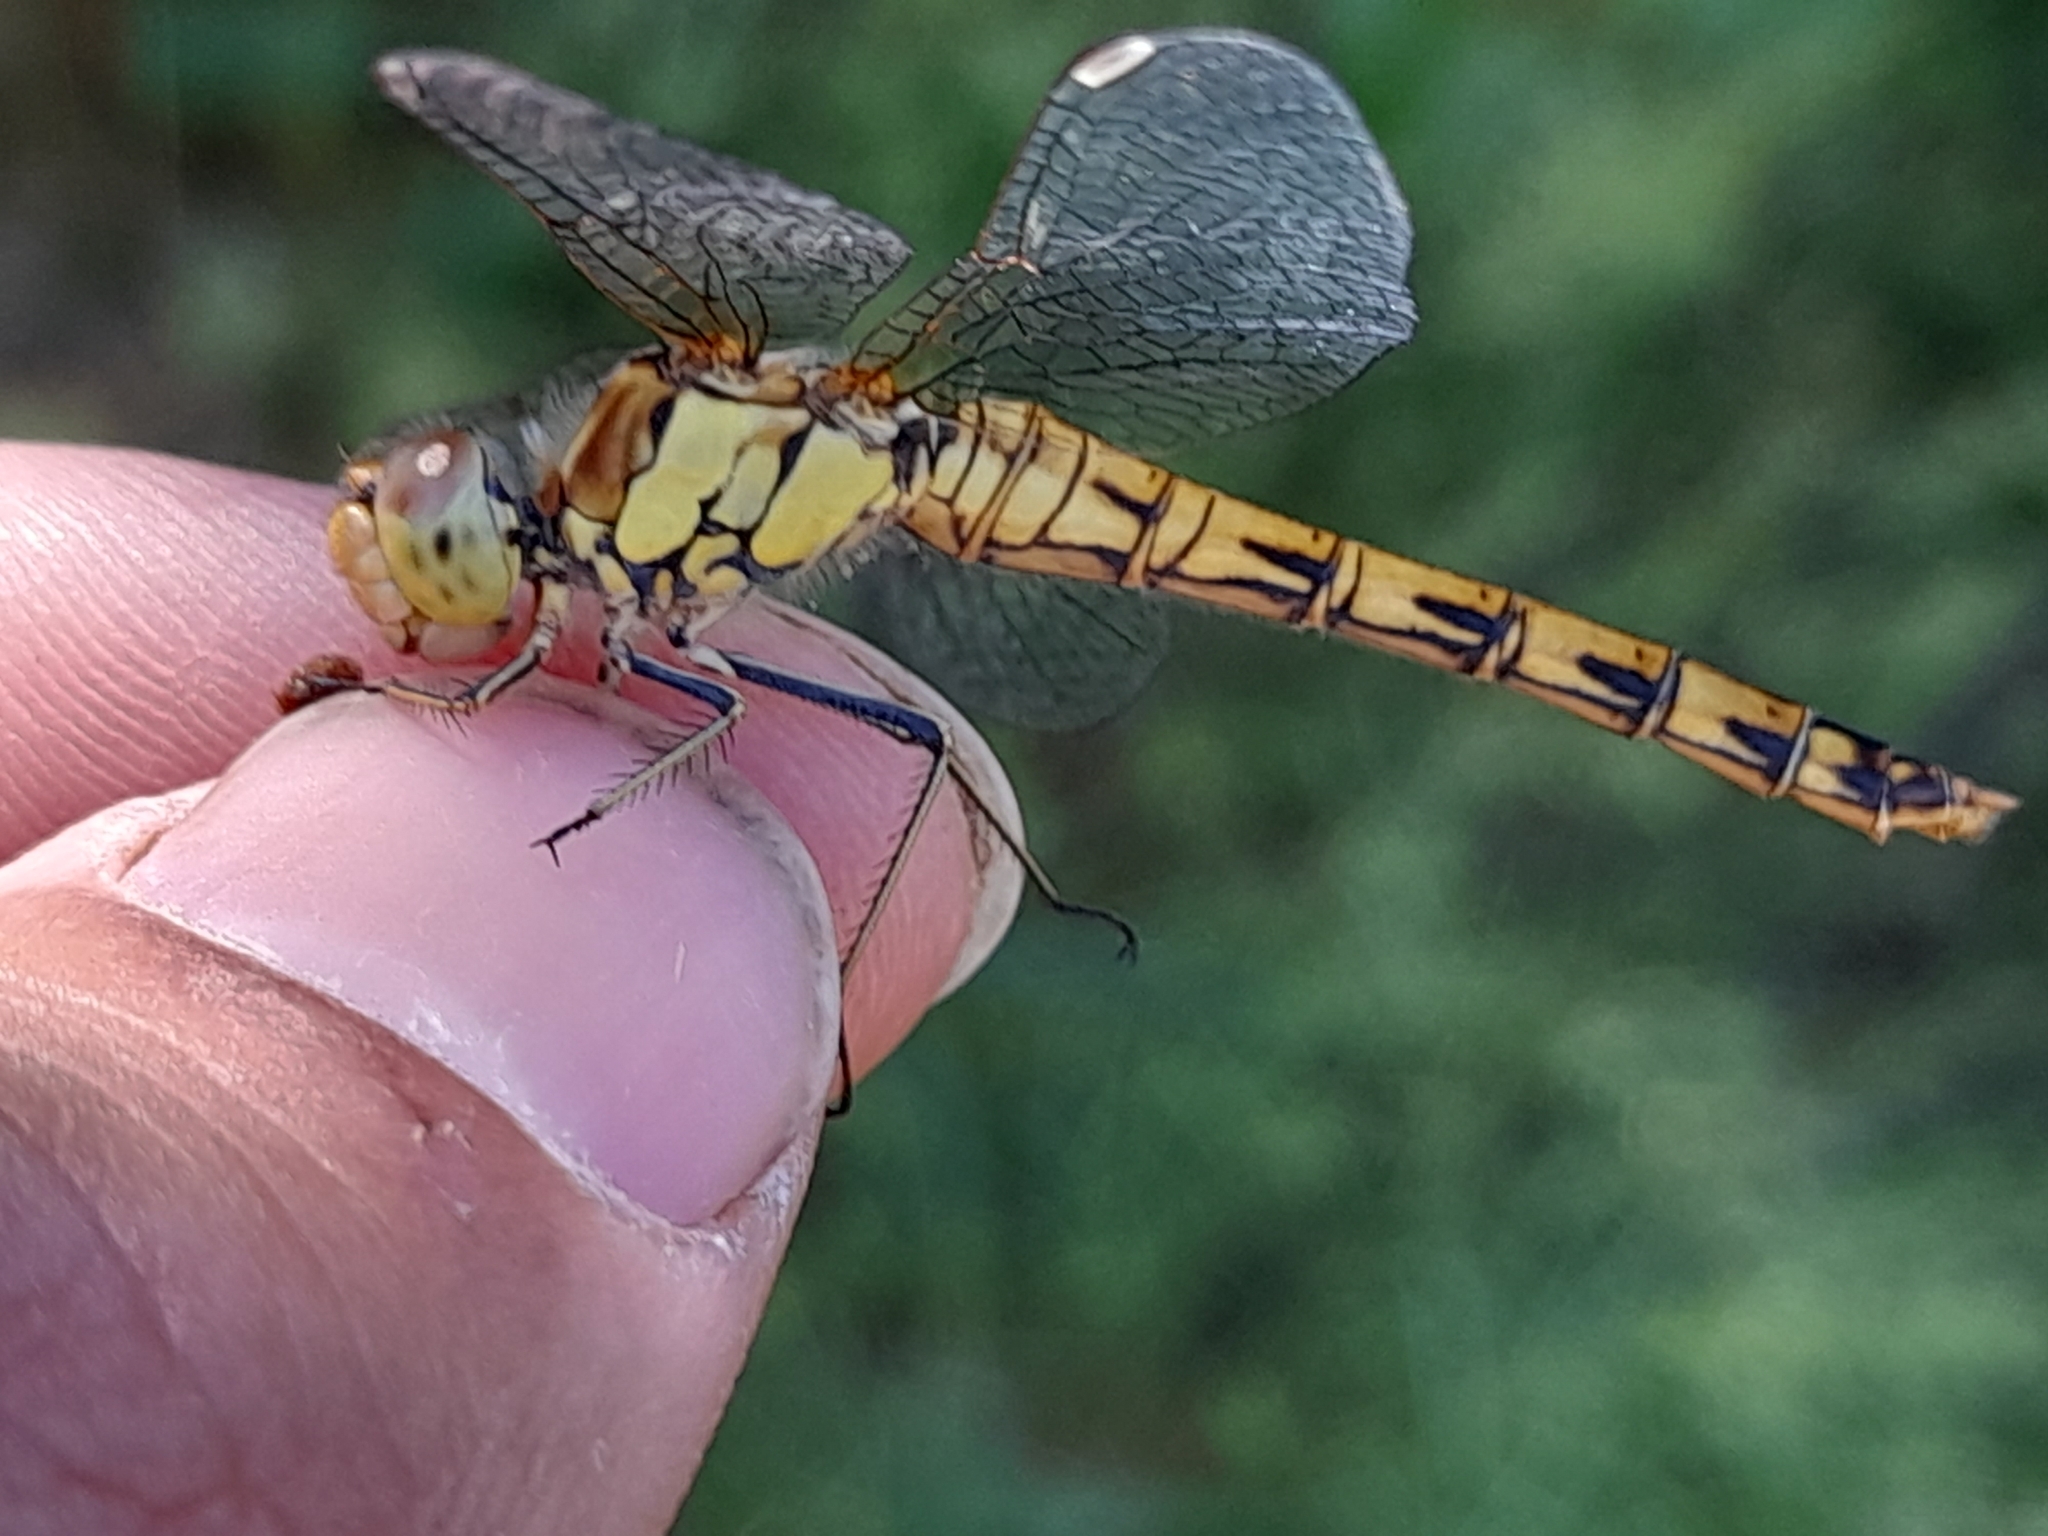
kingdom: Animalia
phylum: Arthropoda
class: Insecta
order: Odonata
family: Libellulidae
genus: Sympetrum
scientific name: Sympetrum striolatum
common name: Common darter
